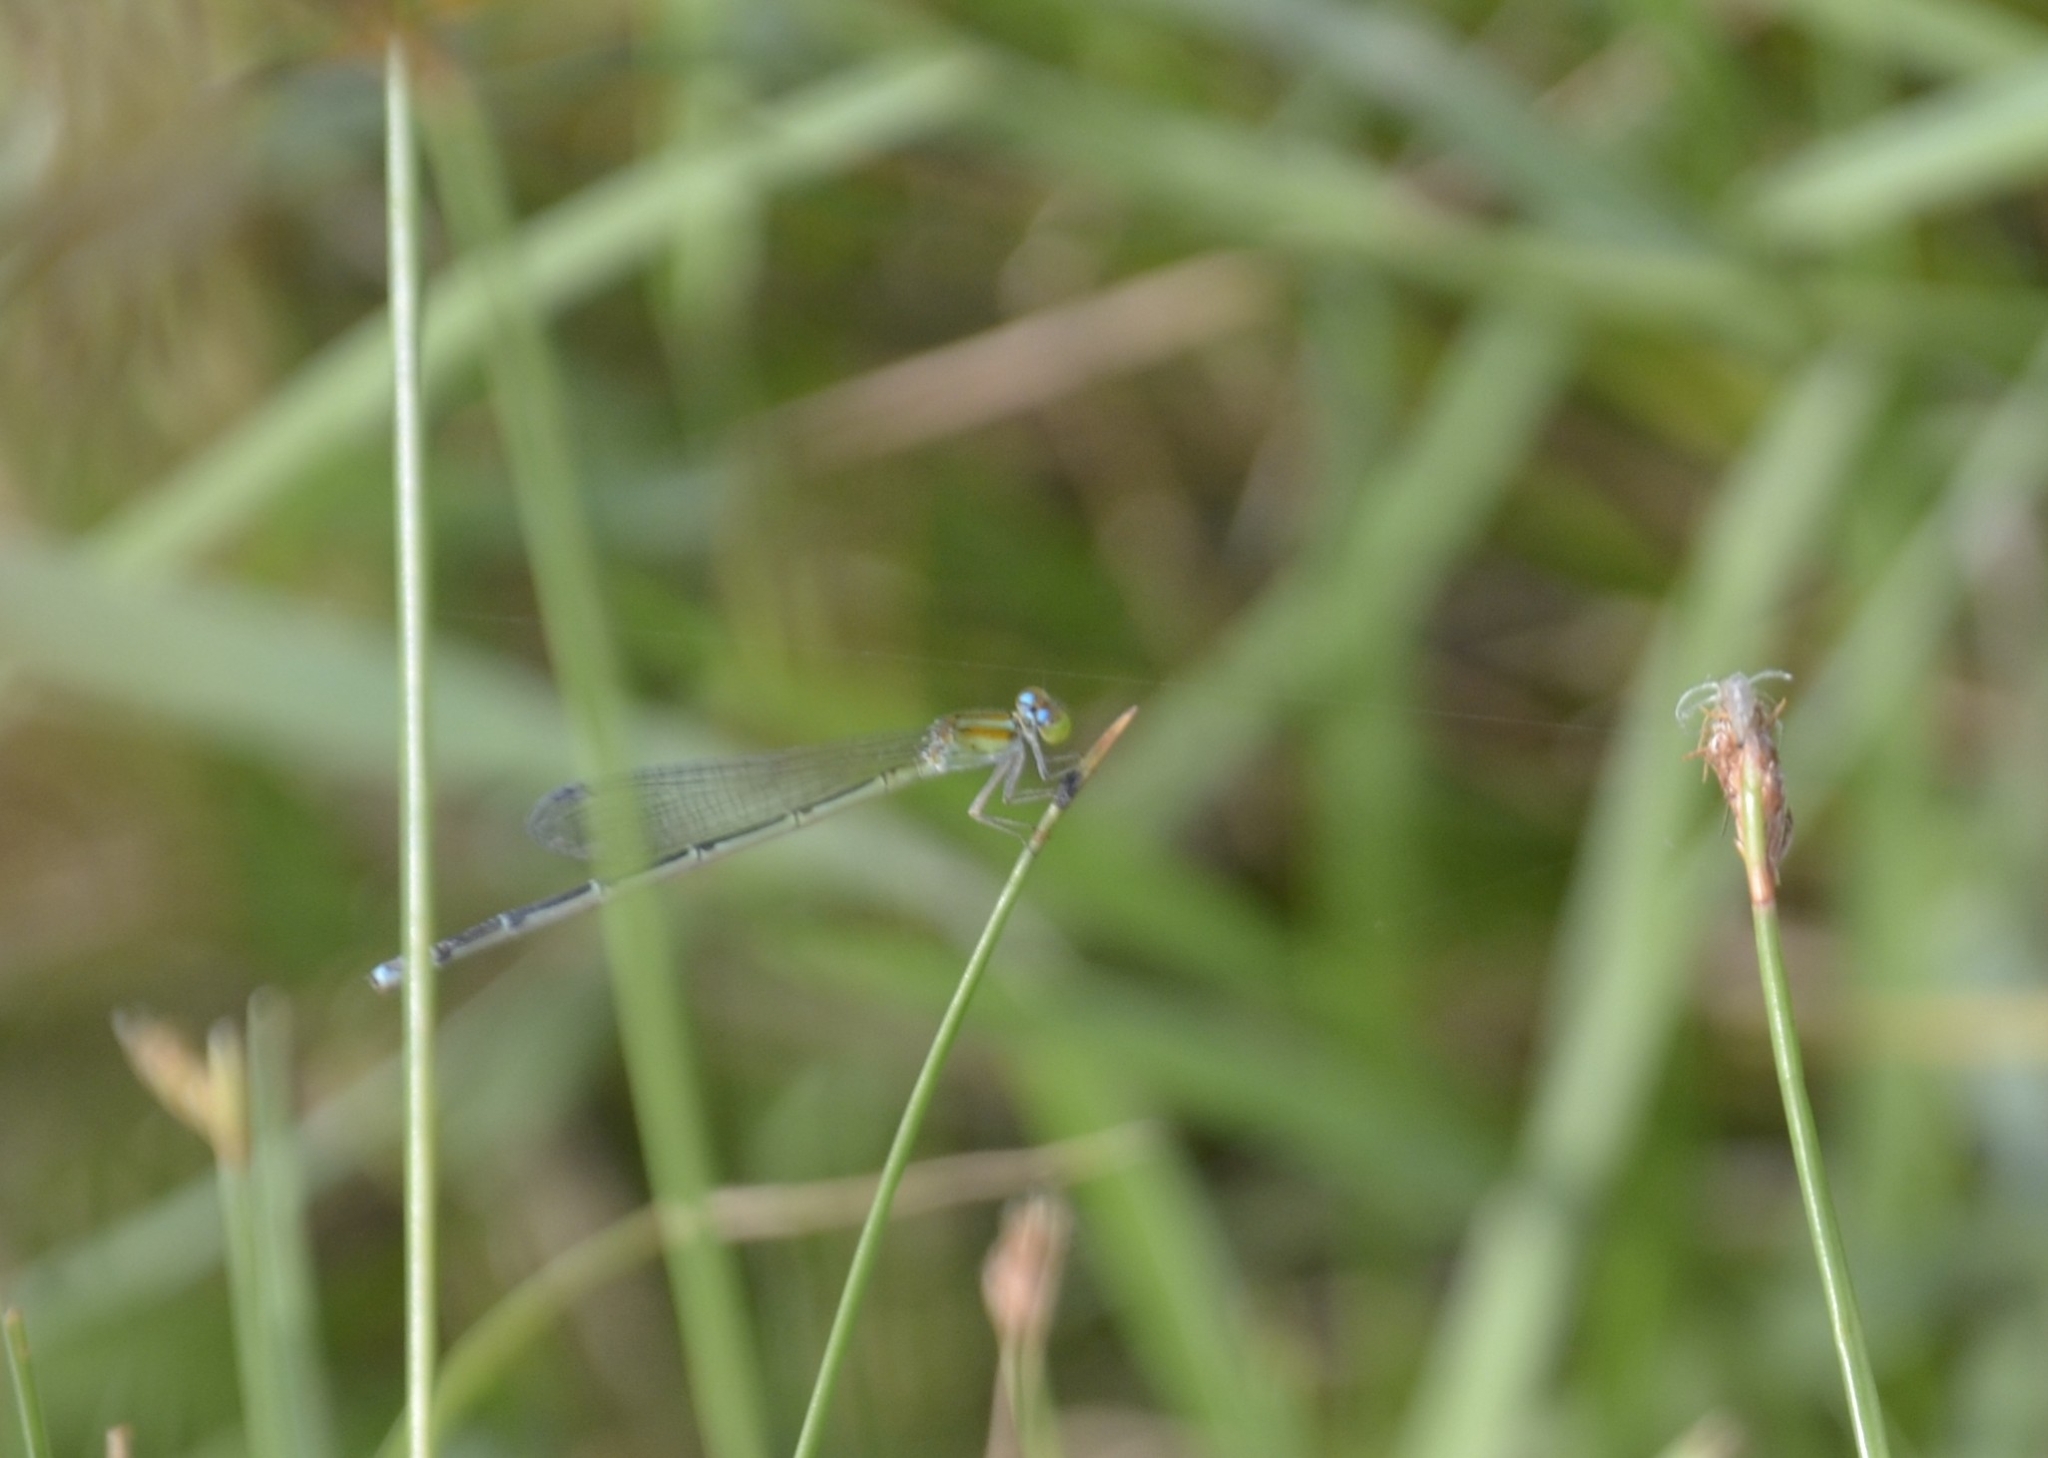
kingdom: Animalia
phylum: Arthropoda
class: Insecta
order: Odonata
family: Coenagrionidae
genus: Pseudagrion
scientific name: Pseudagrion microcephalum
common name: Blue riverdamsel
